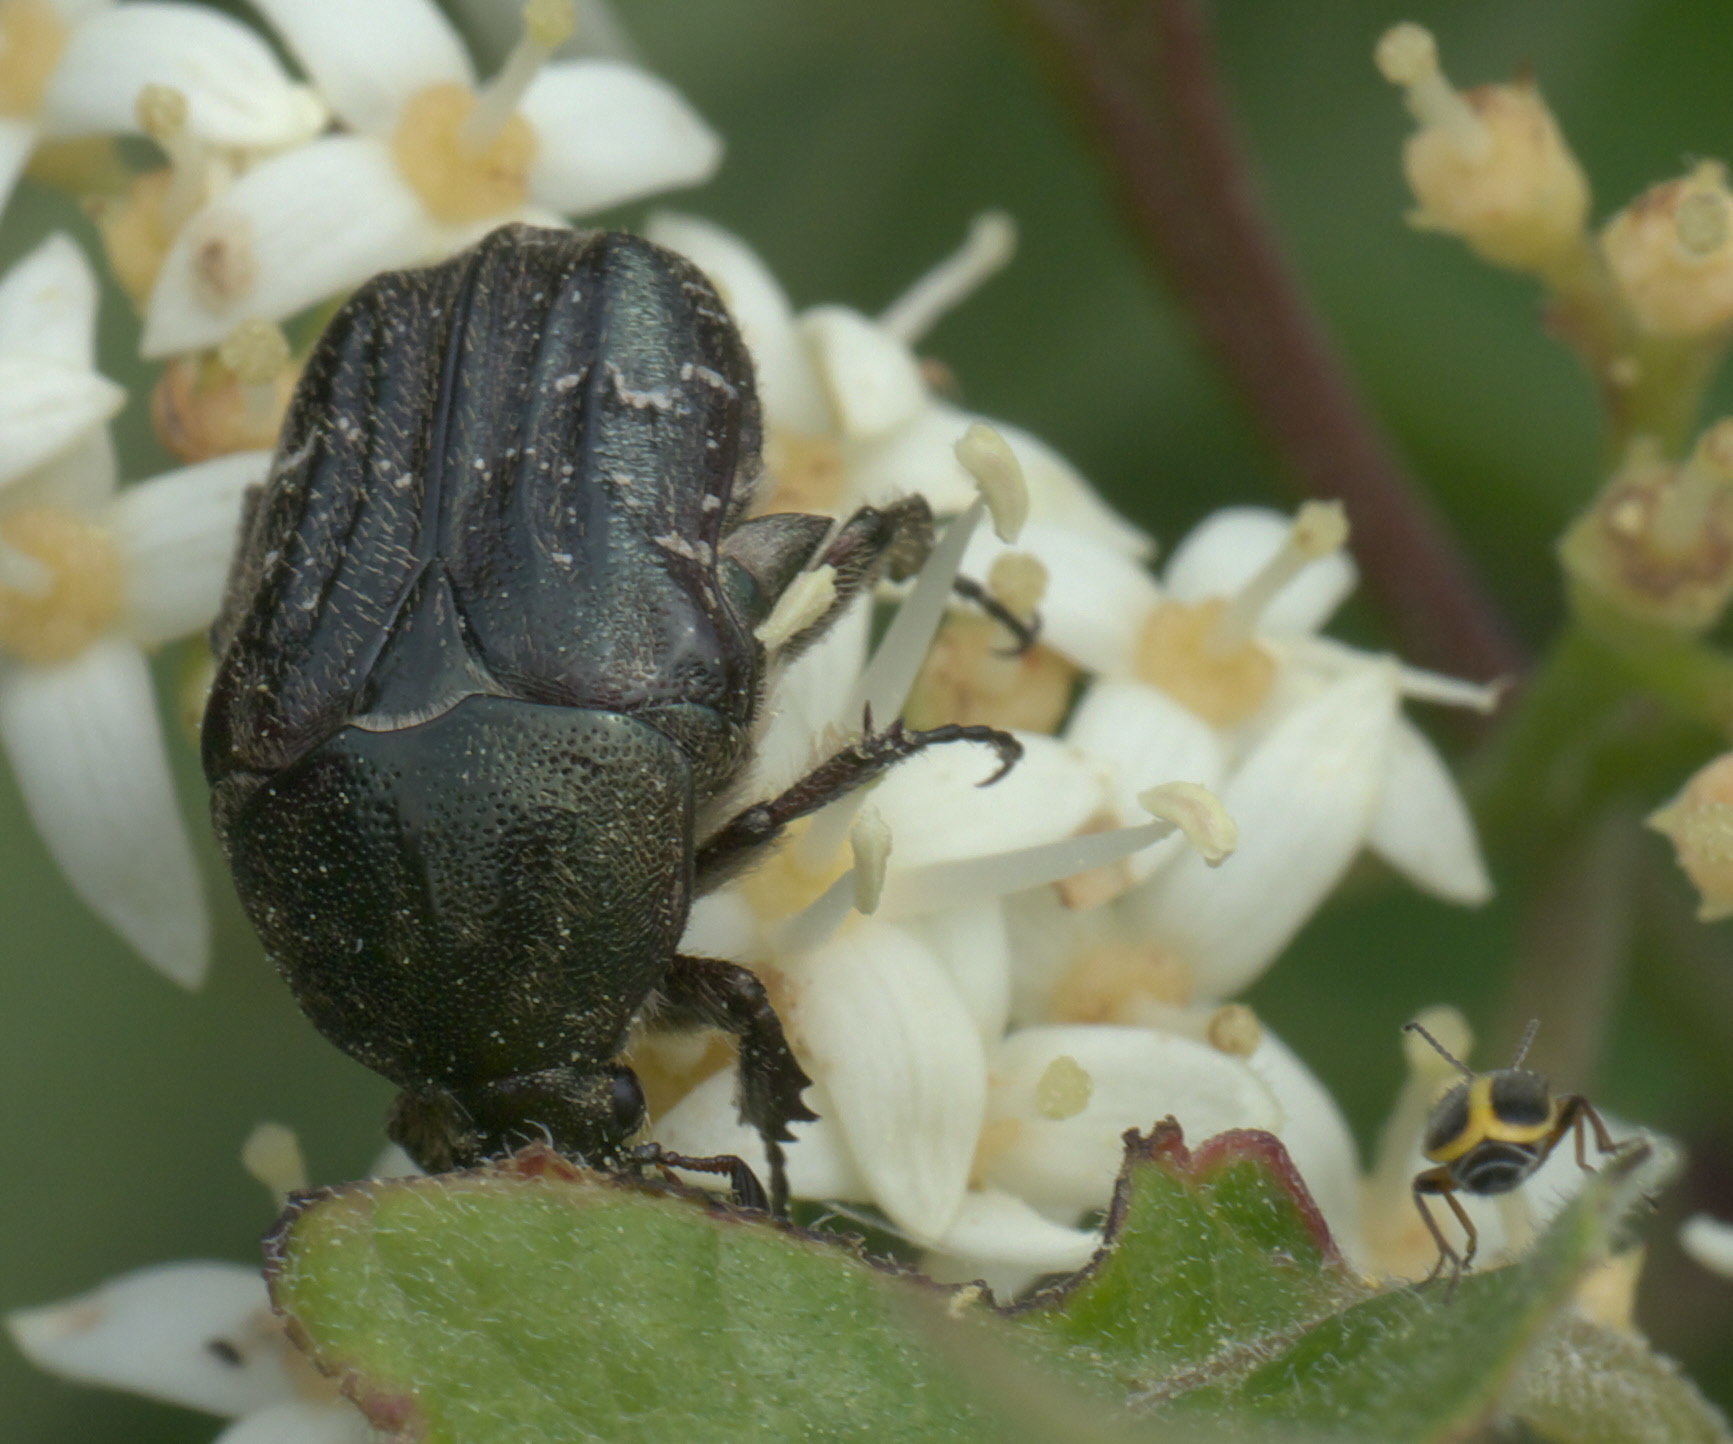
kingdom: Animalia
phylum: Arthropoda
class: Insecta
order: Coleoptera
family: Scarabaeidae
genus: Euphoria
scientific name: Euphoria sepulcralis
